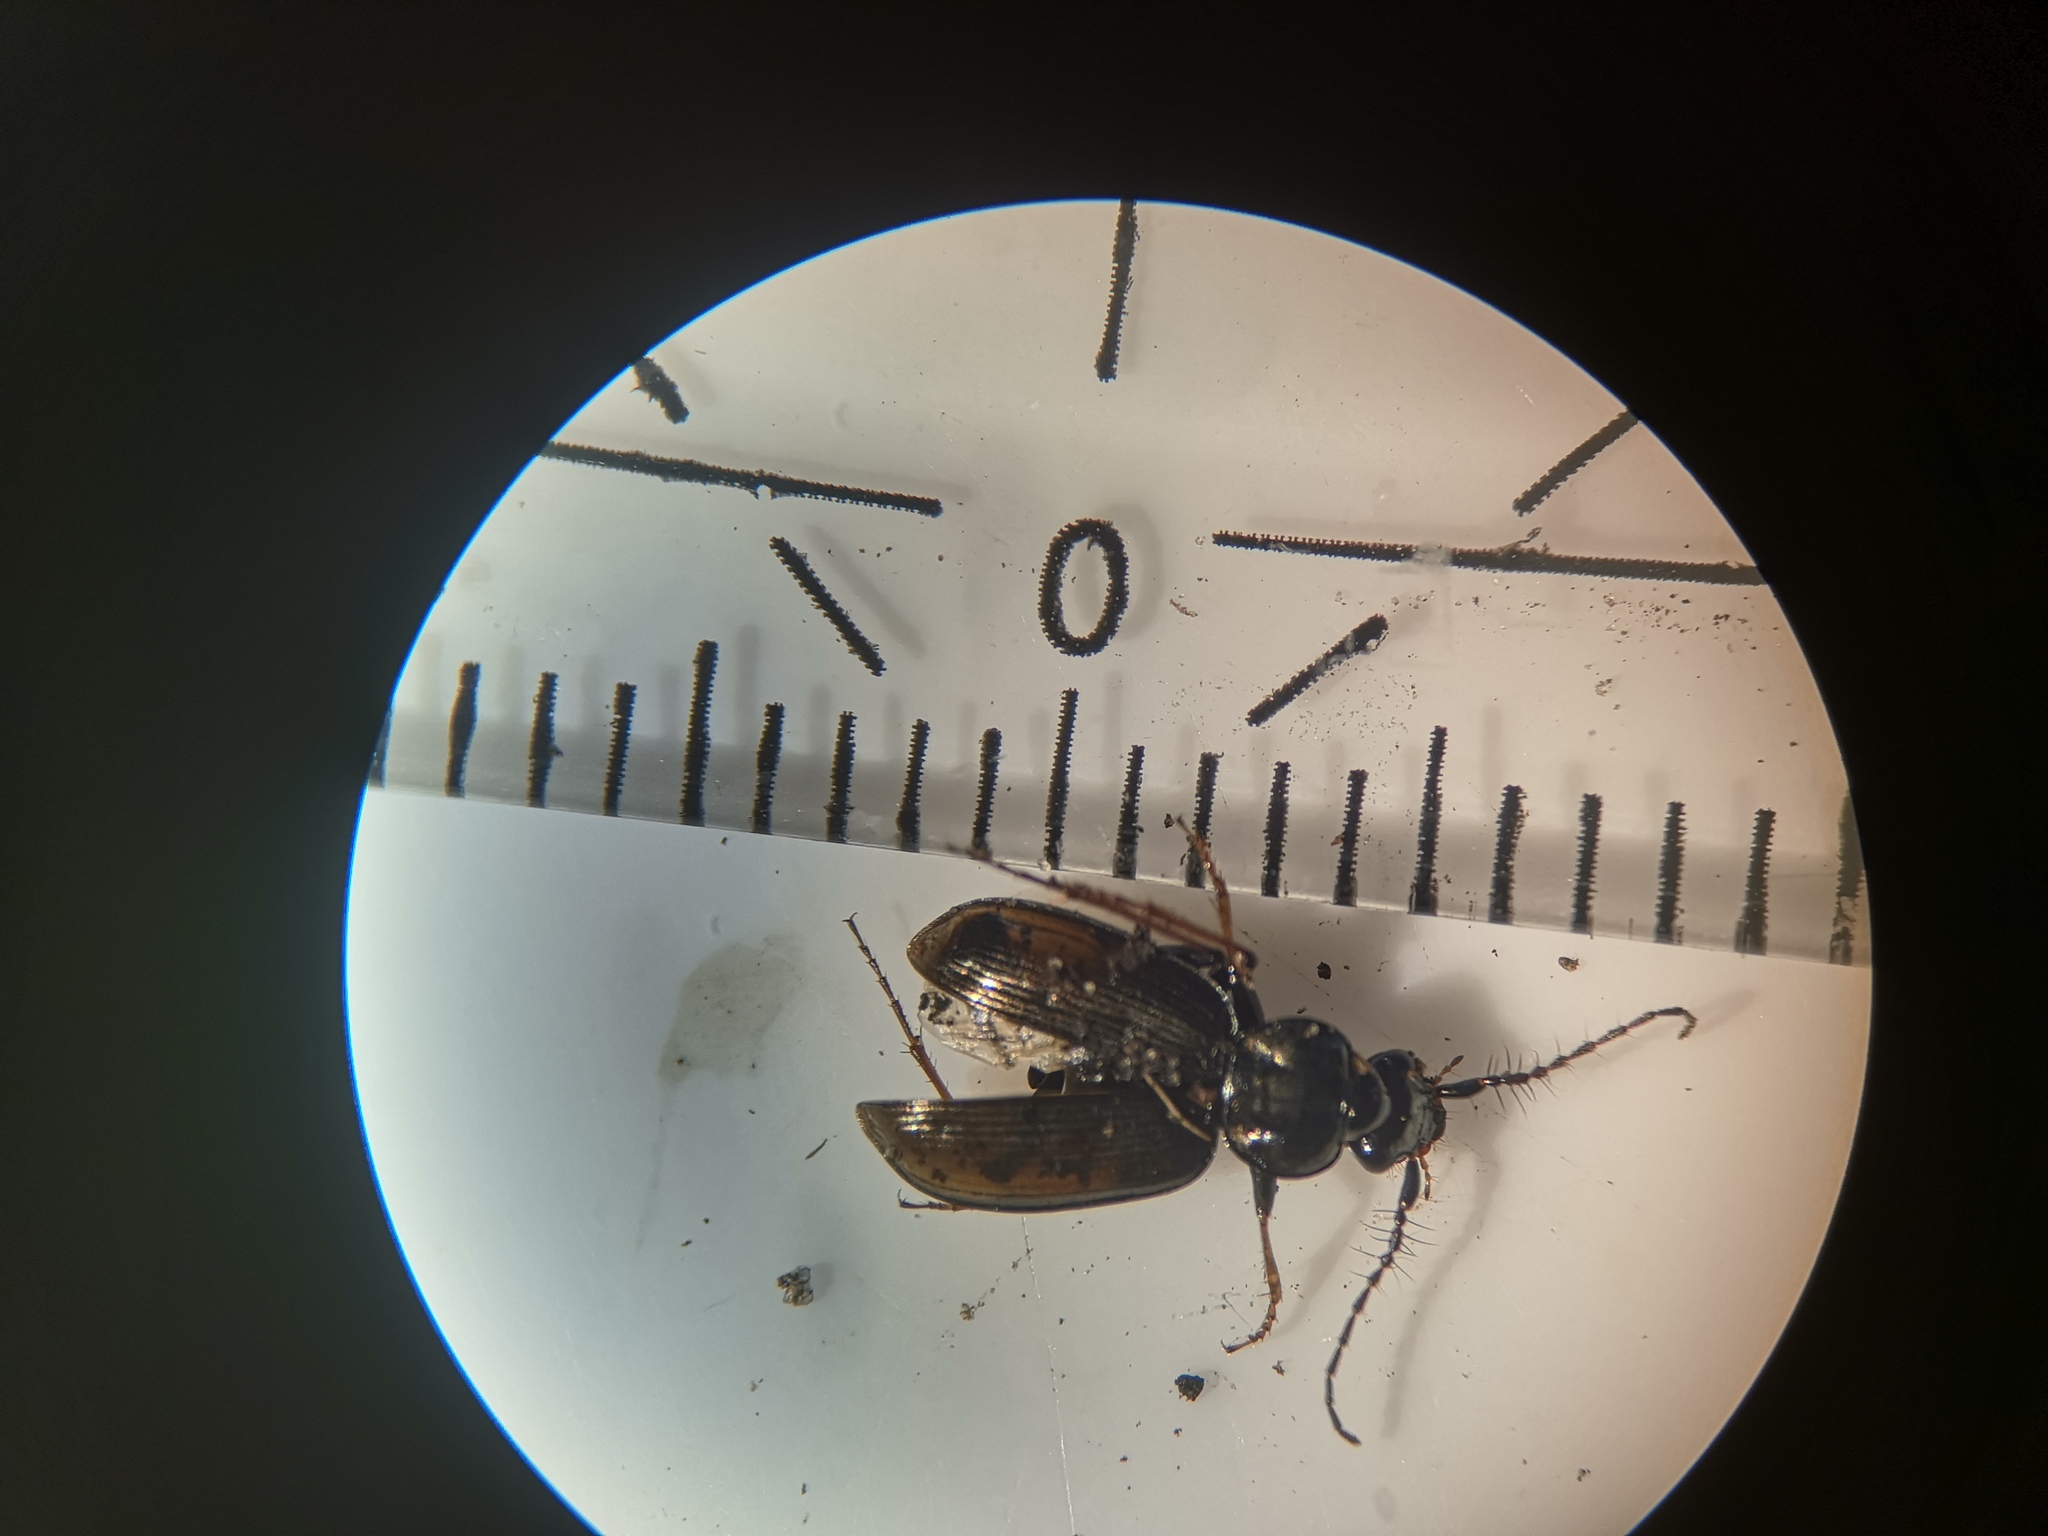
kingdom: Animalia
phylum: Arthropoda
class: Insecta
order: Coleoptera
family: Carabidae
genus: Loricera
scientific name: Loricera pilicornis
